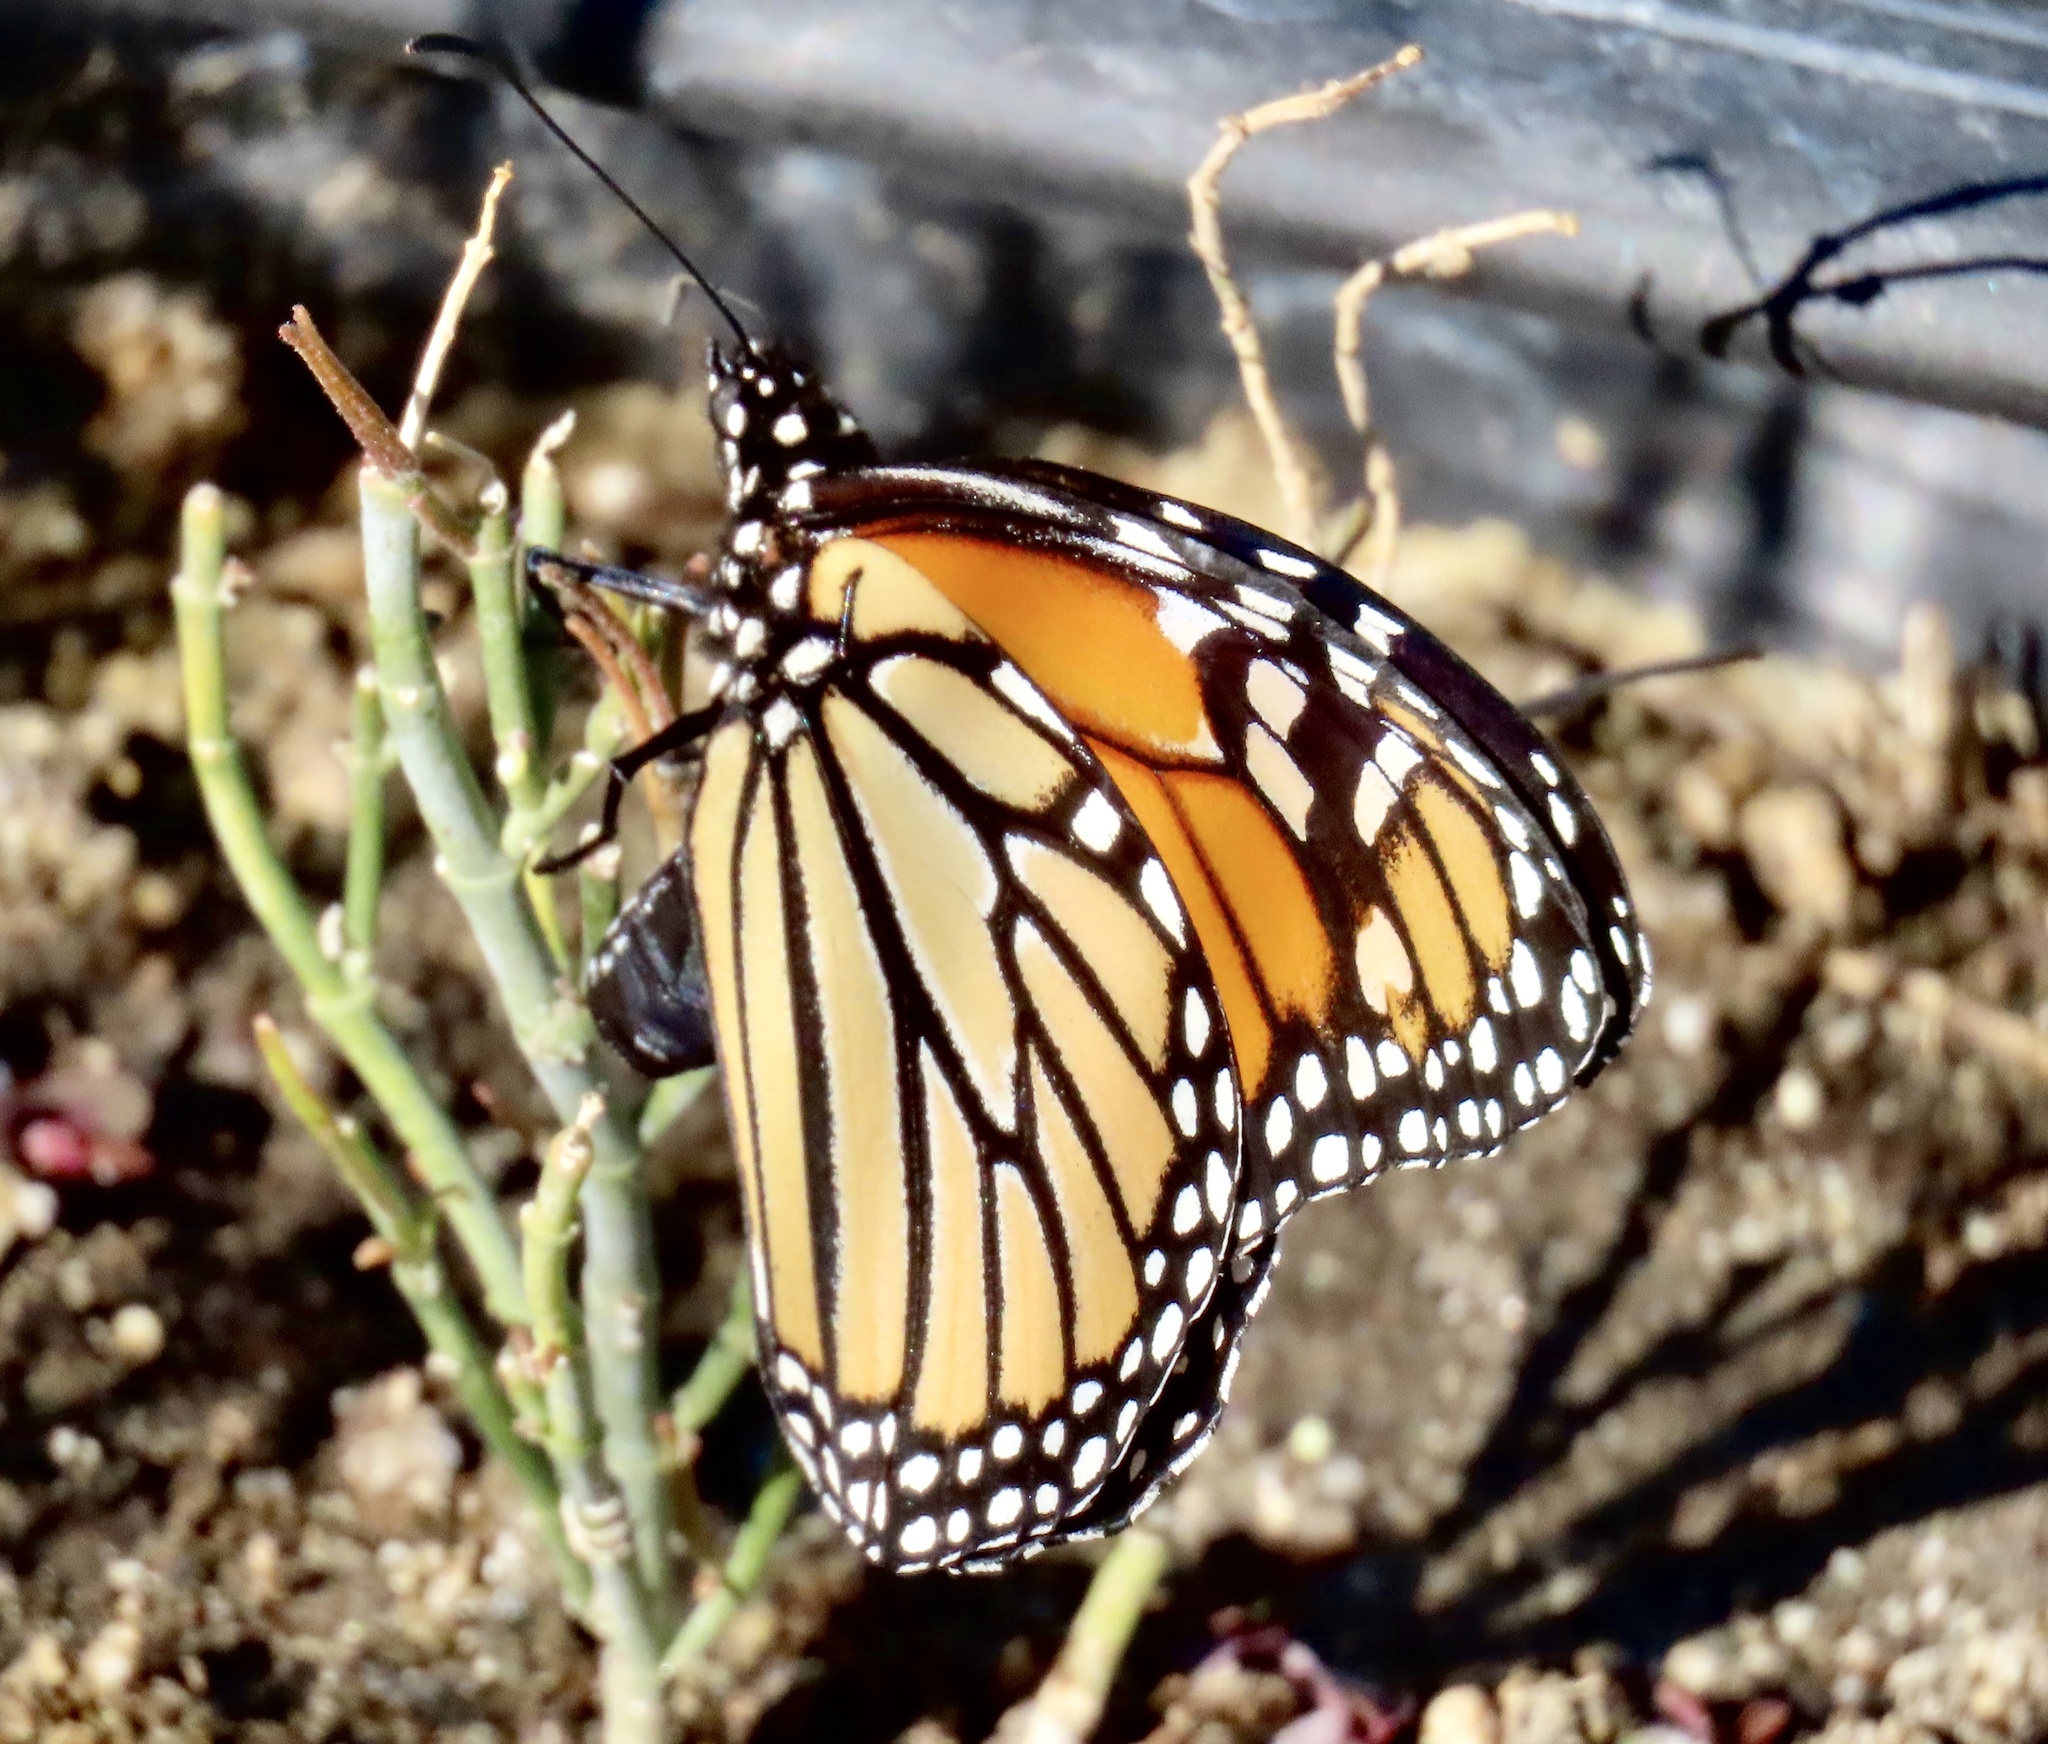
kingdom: Animalia
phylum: Arthropoda
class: Insecta
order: Lepidoptera
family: Nymphalidae
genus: Danaus
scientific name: Danaus plexippus
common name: Monarch
